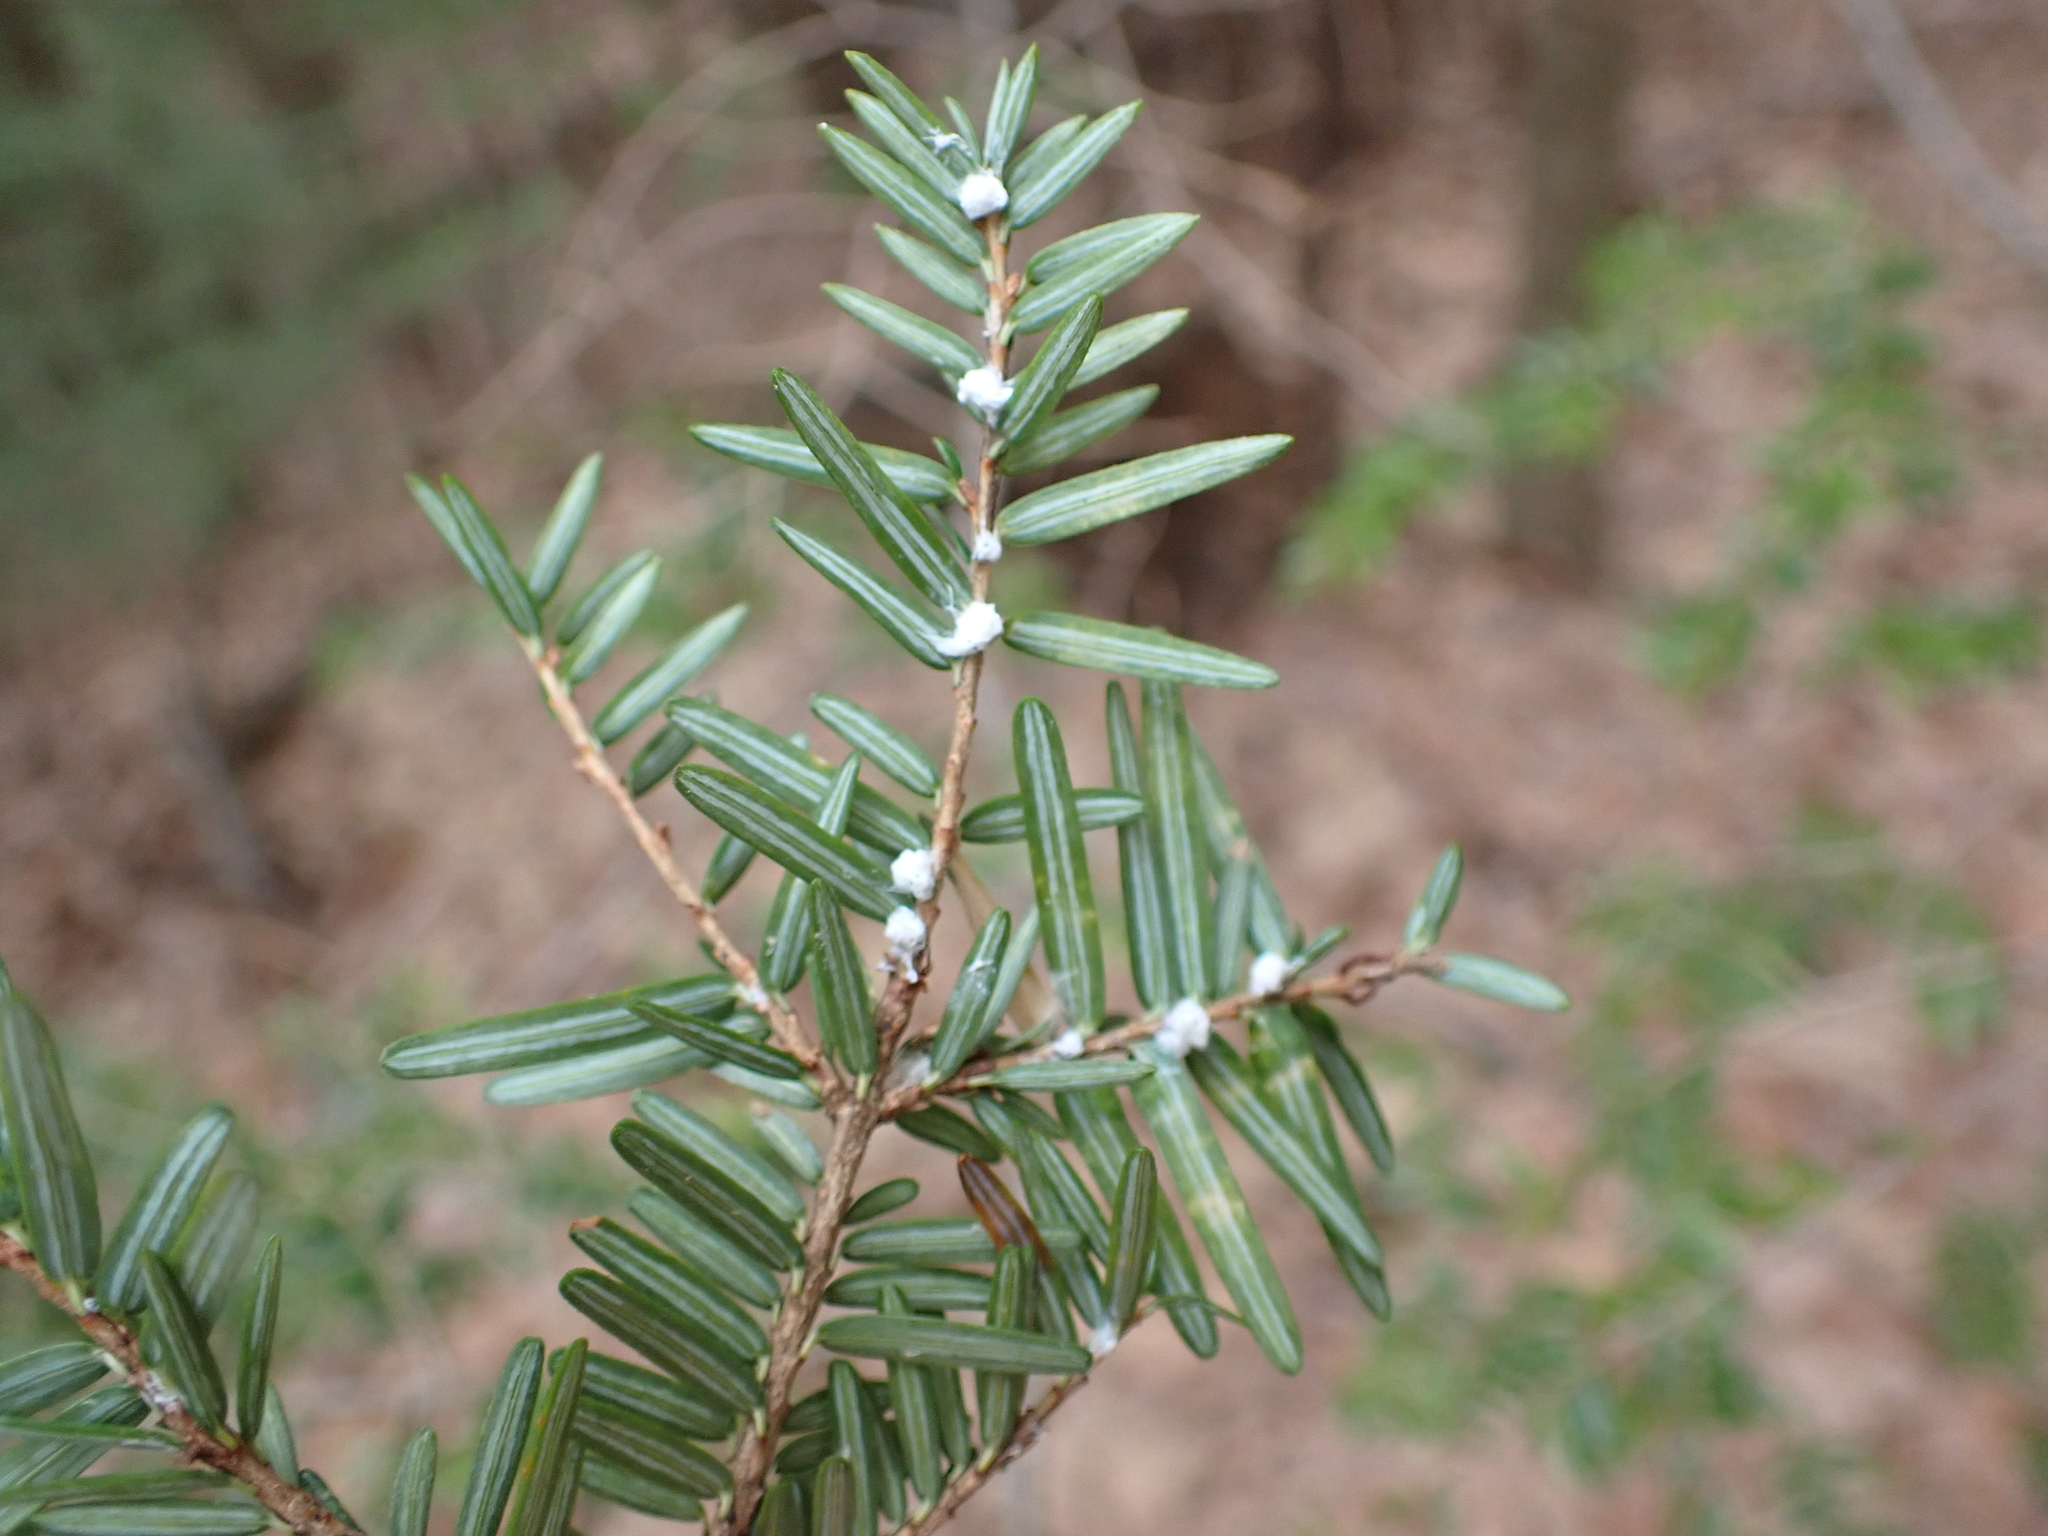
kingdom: Animalia
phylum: Arthropoda
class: Insecta
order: Hemiptera
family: Adelgidae
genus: Adelges
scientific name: Adelges tsugae
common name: Hemlock woolly adelgid
